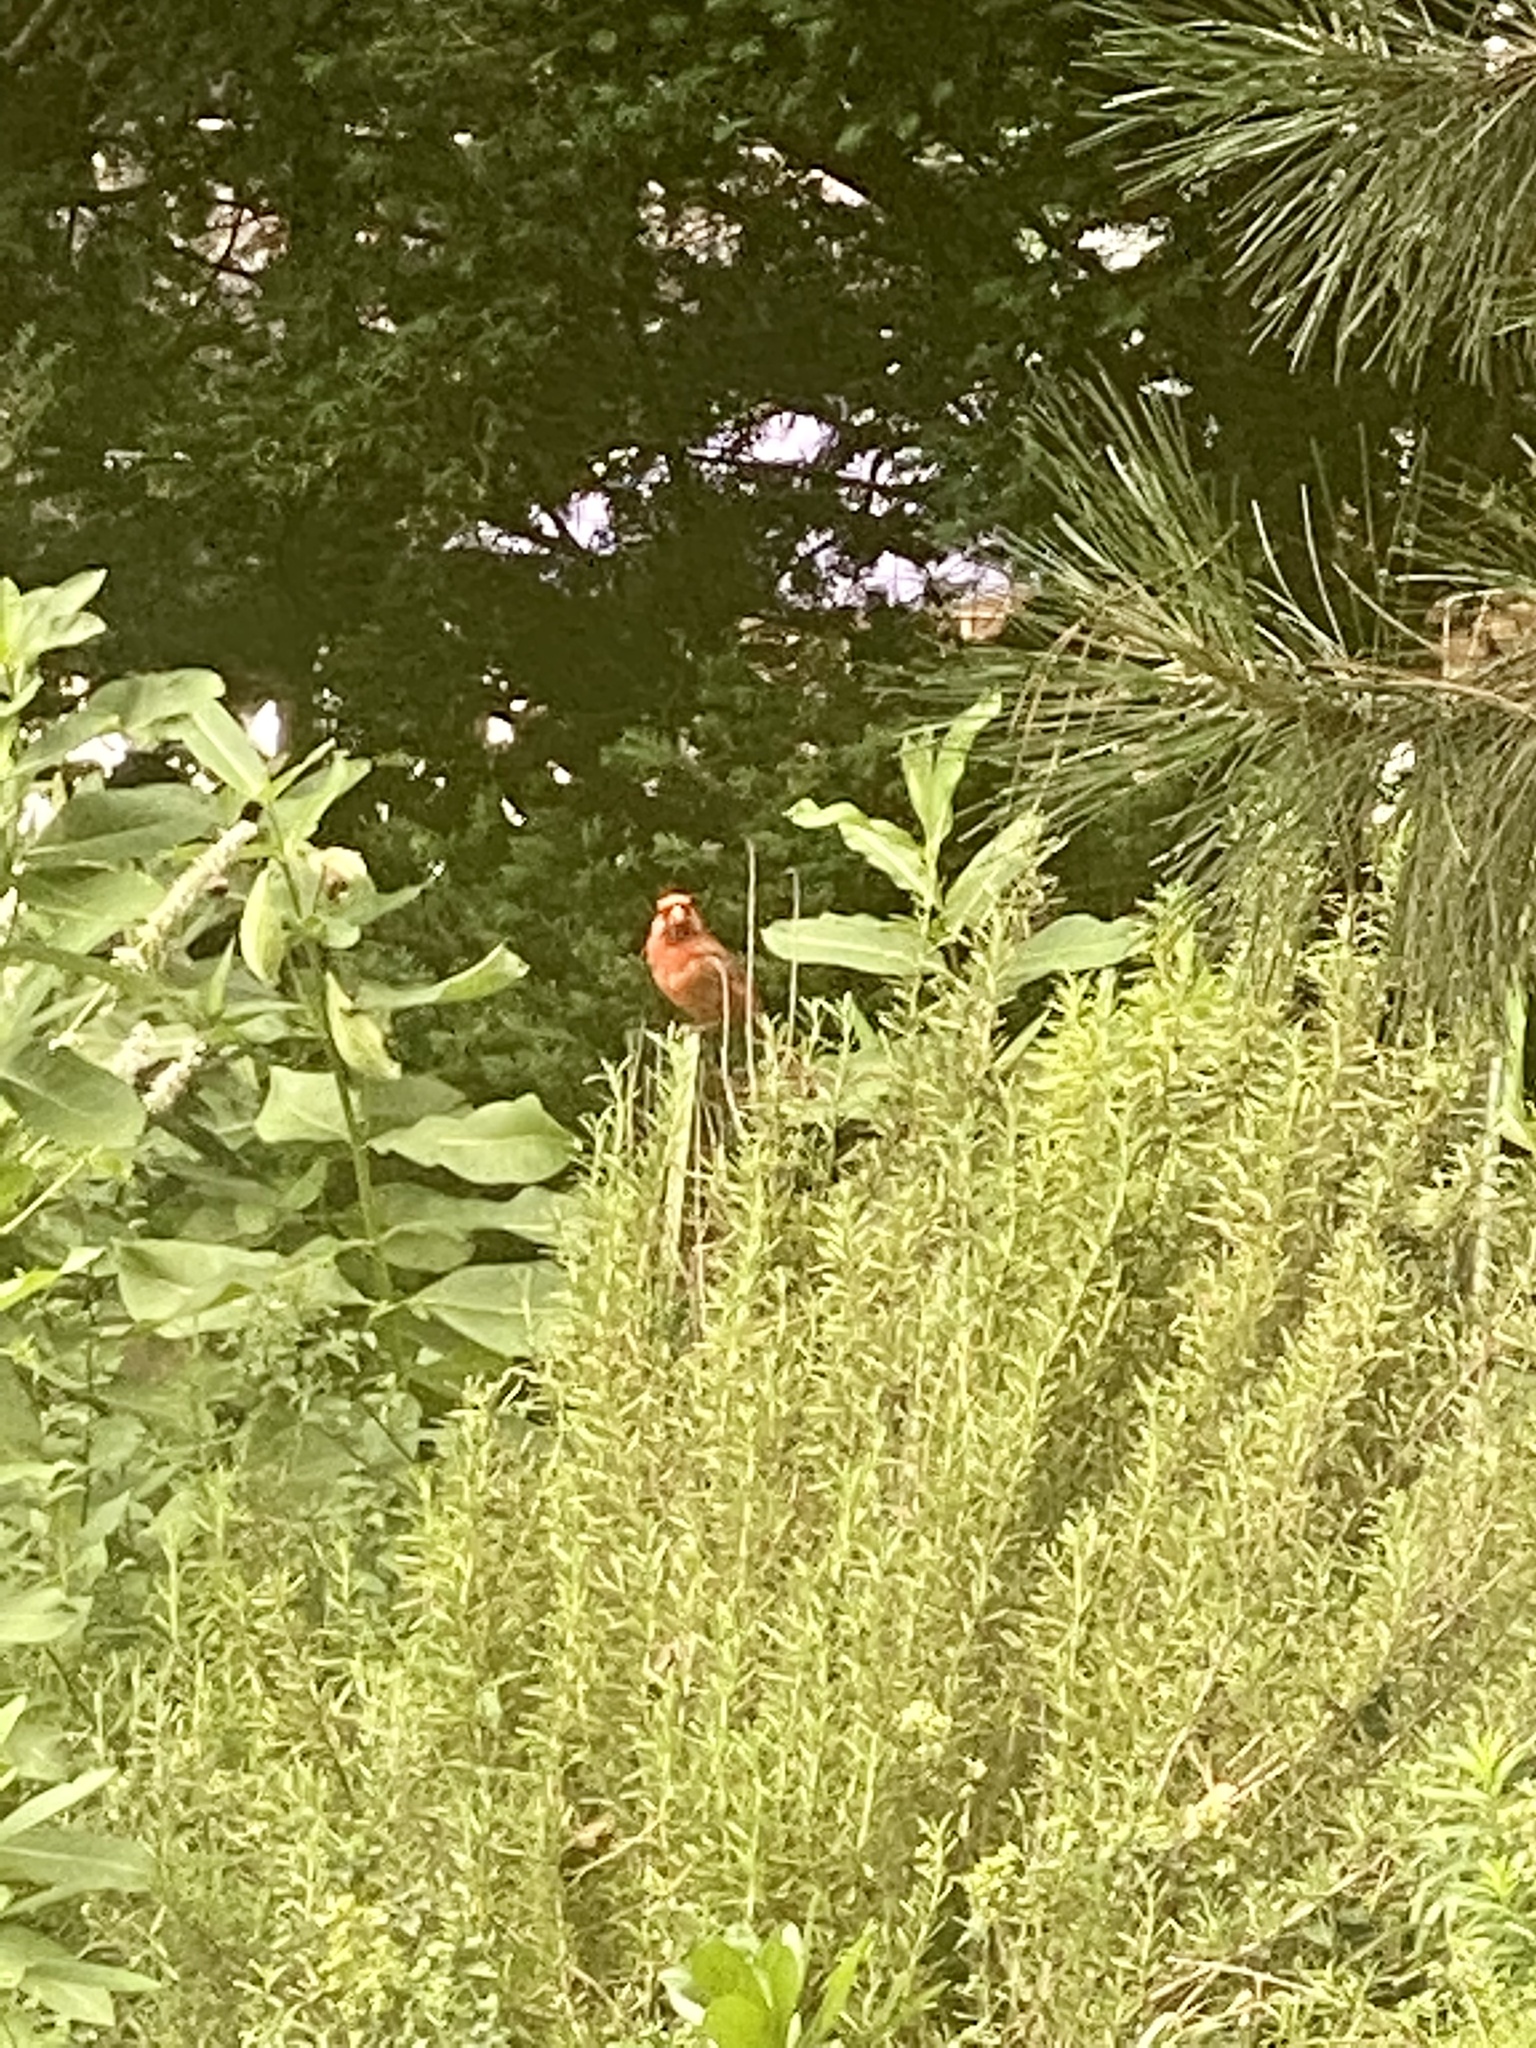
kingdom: Animalia
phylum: Chordata
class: Aves
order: Passeriformes
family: Cardinalidae
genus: Cardinalis
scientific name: Cardinalis cardinalis
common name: Northern cardinal
